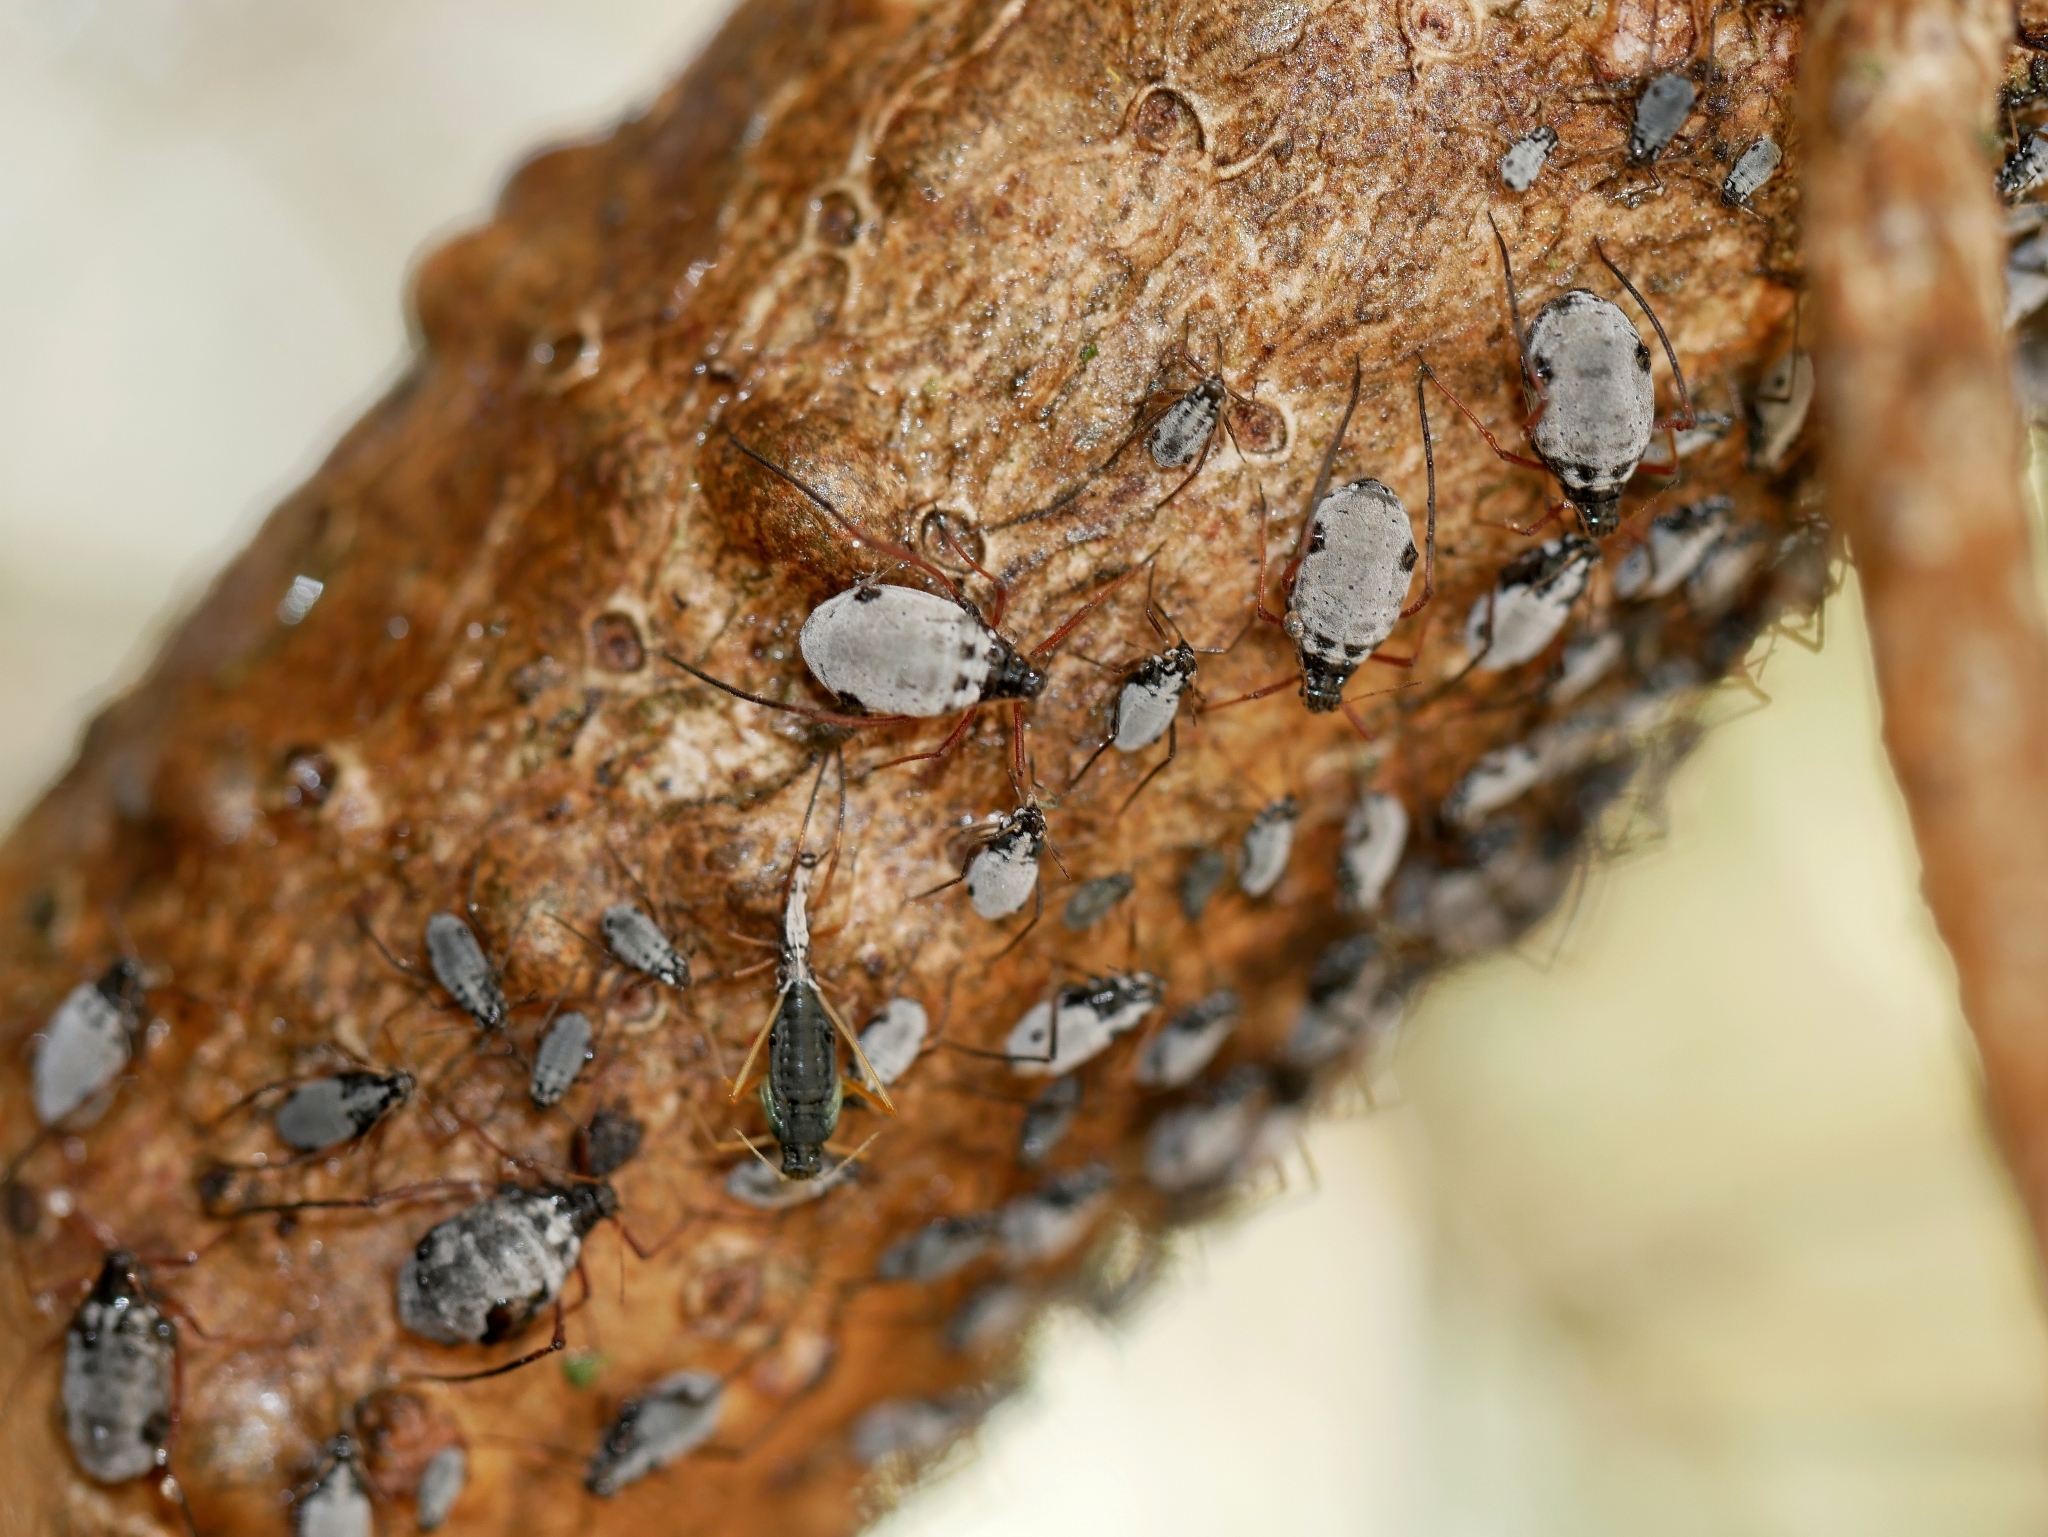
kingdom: Animalia
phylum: Arthropoda
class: Insecta
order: Hemiptera
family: Aphididae
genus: Cinara
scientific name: Cinara curvipes
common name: Balsam fir aphid
